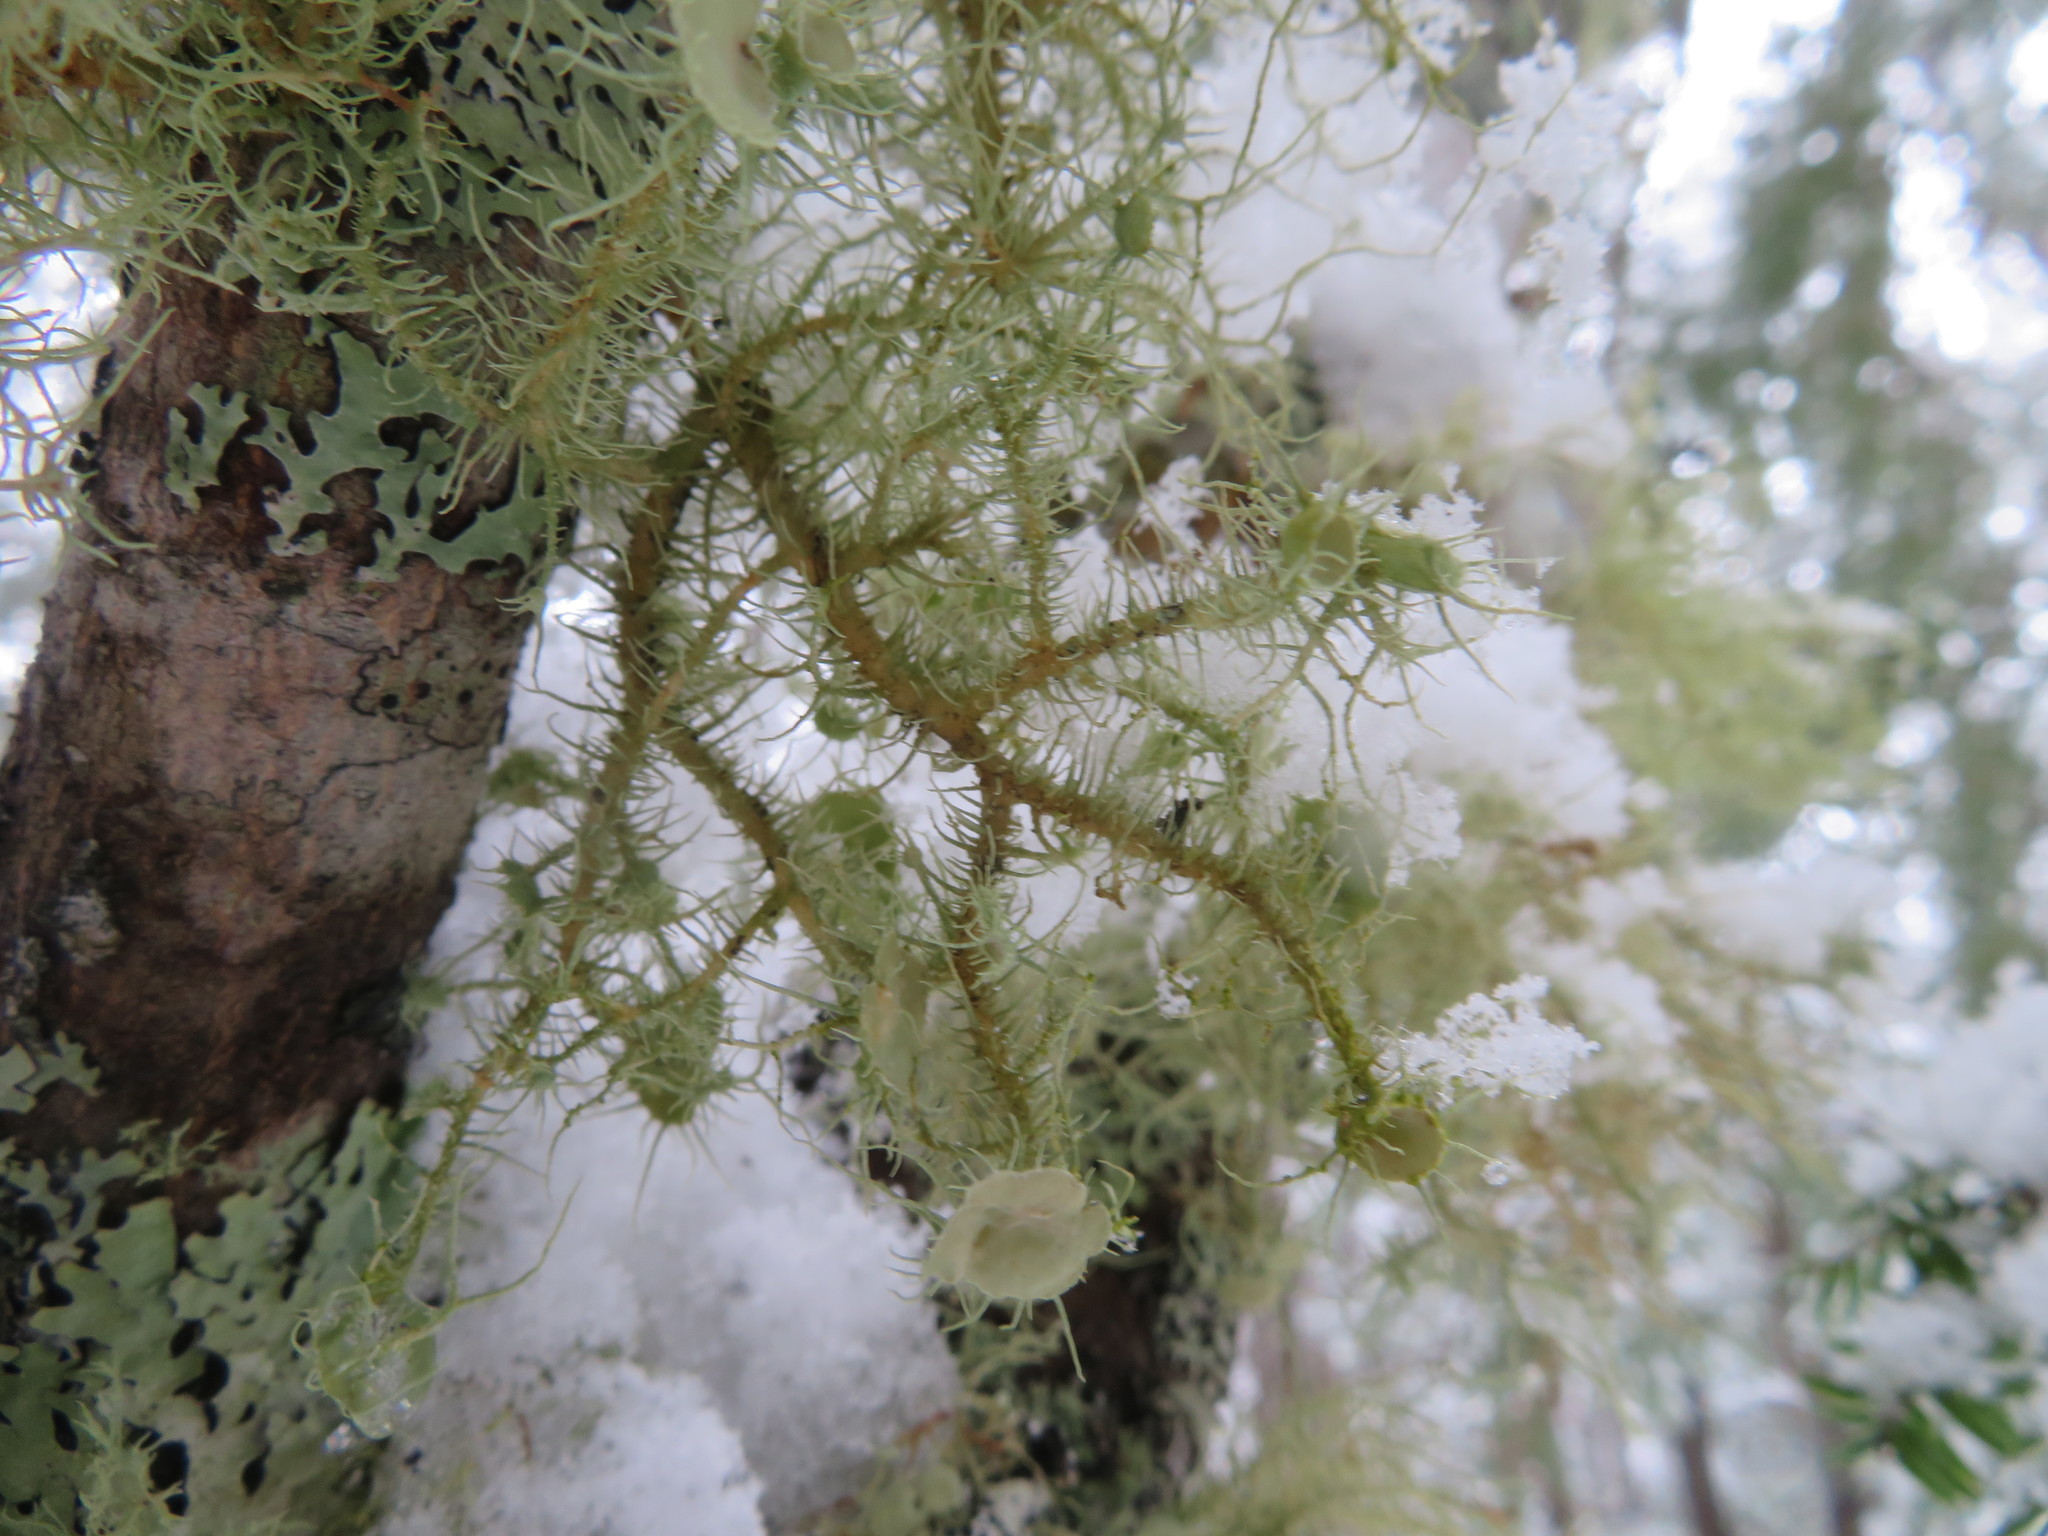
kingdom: Fungi
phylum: Ascomycota
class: Lecanoromycetes
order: Lecanorales
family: Parmeliaceae
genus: Usnea
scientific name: Usnea strigosa
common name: Bushy beard lichen
